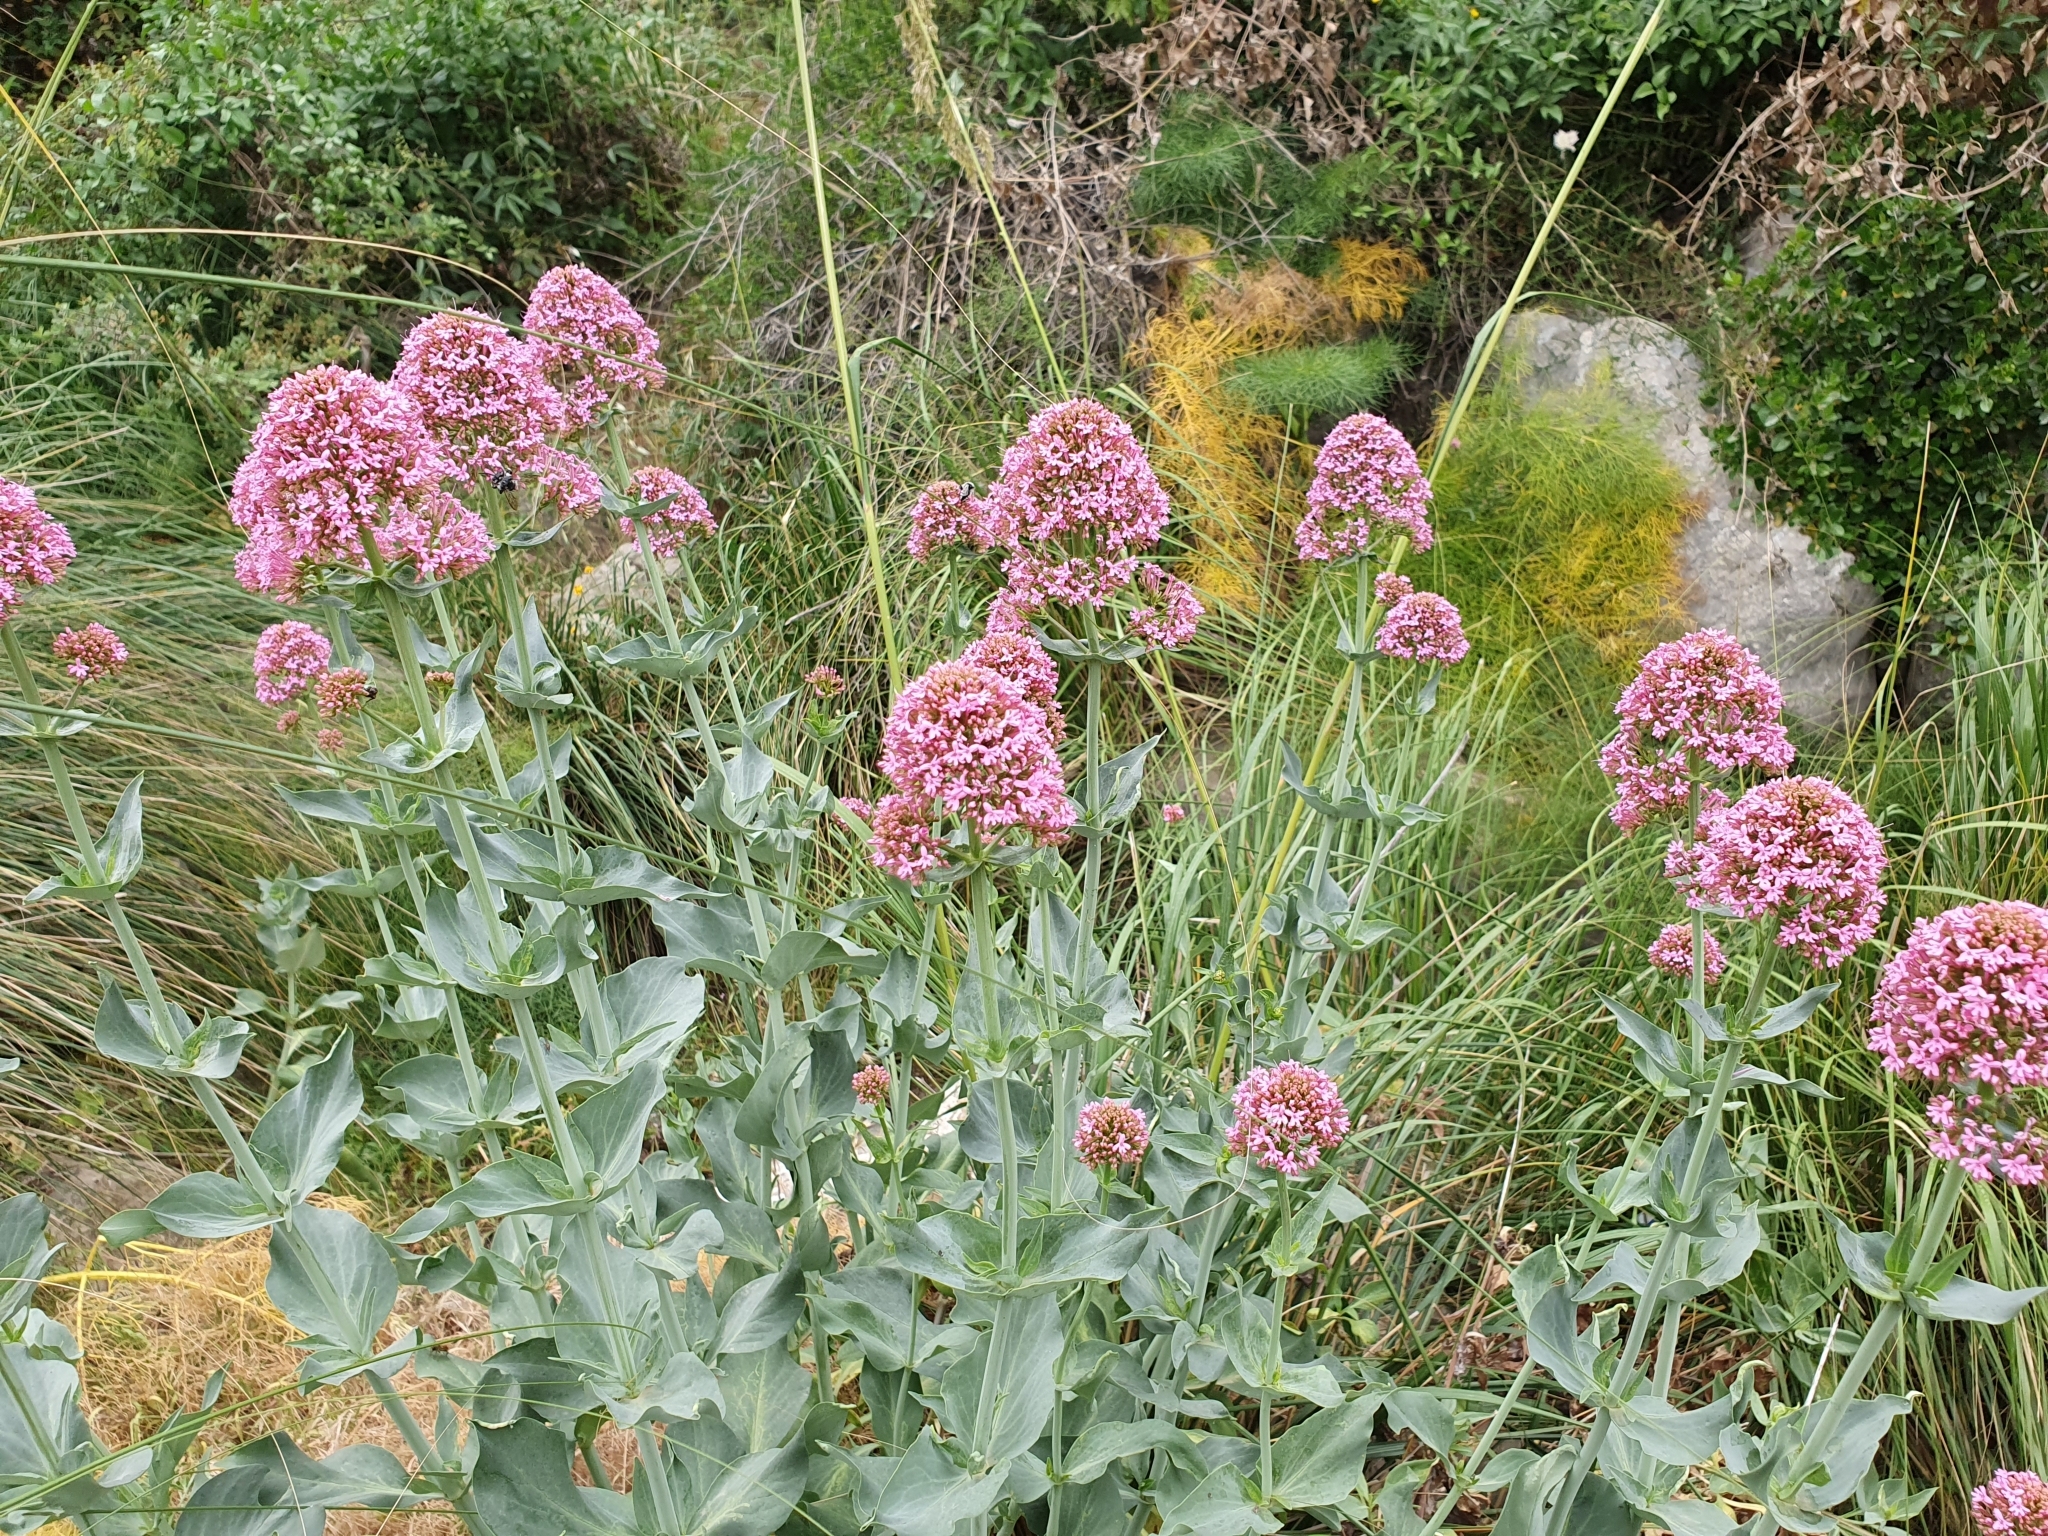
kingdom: Plantae
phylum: Tracheophyta
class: Magnoliopsida
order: Dipsacales
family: Caprifoliaceae
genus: Centranthus
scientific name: Centranthus ruber
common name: Red valerian
